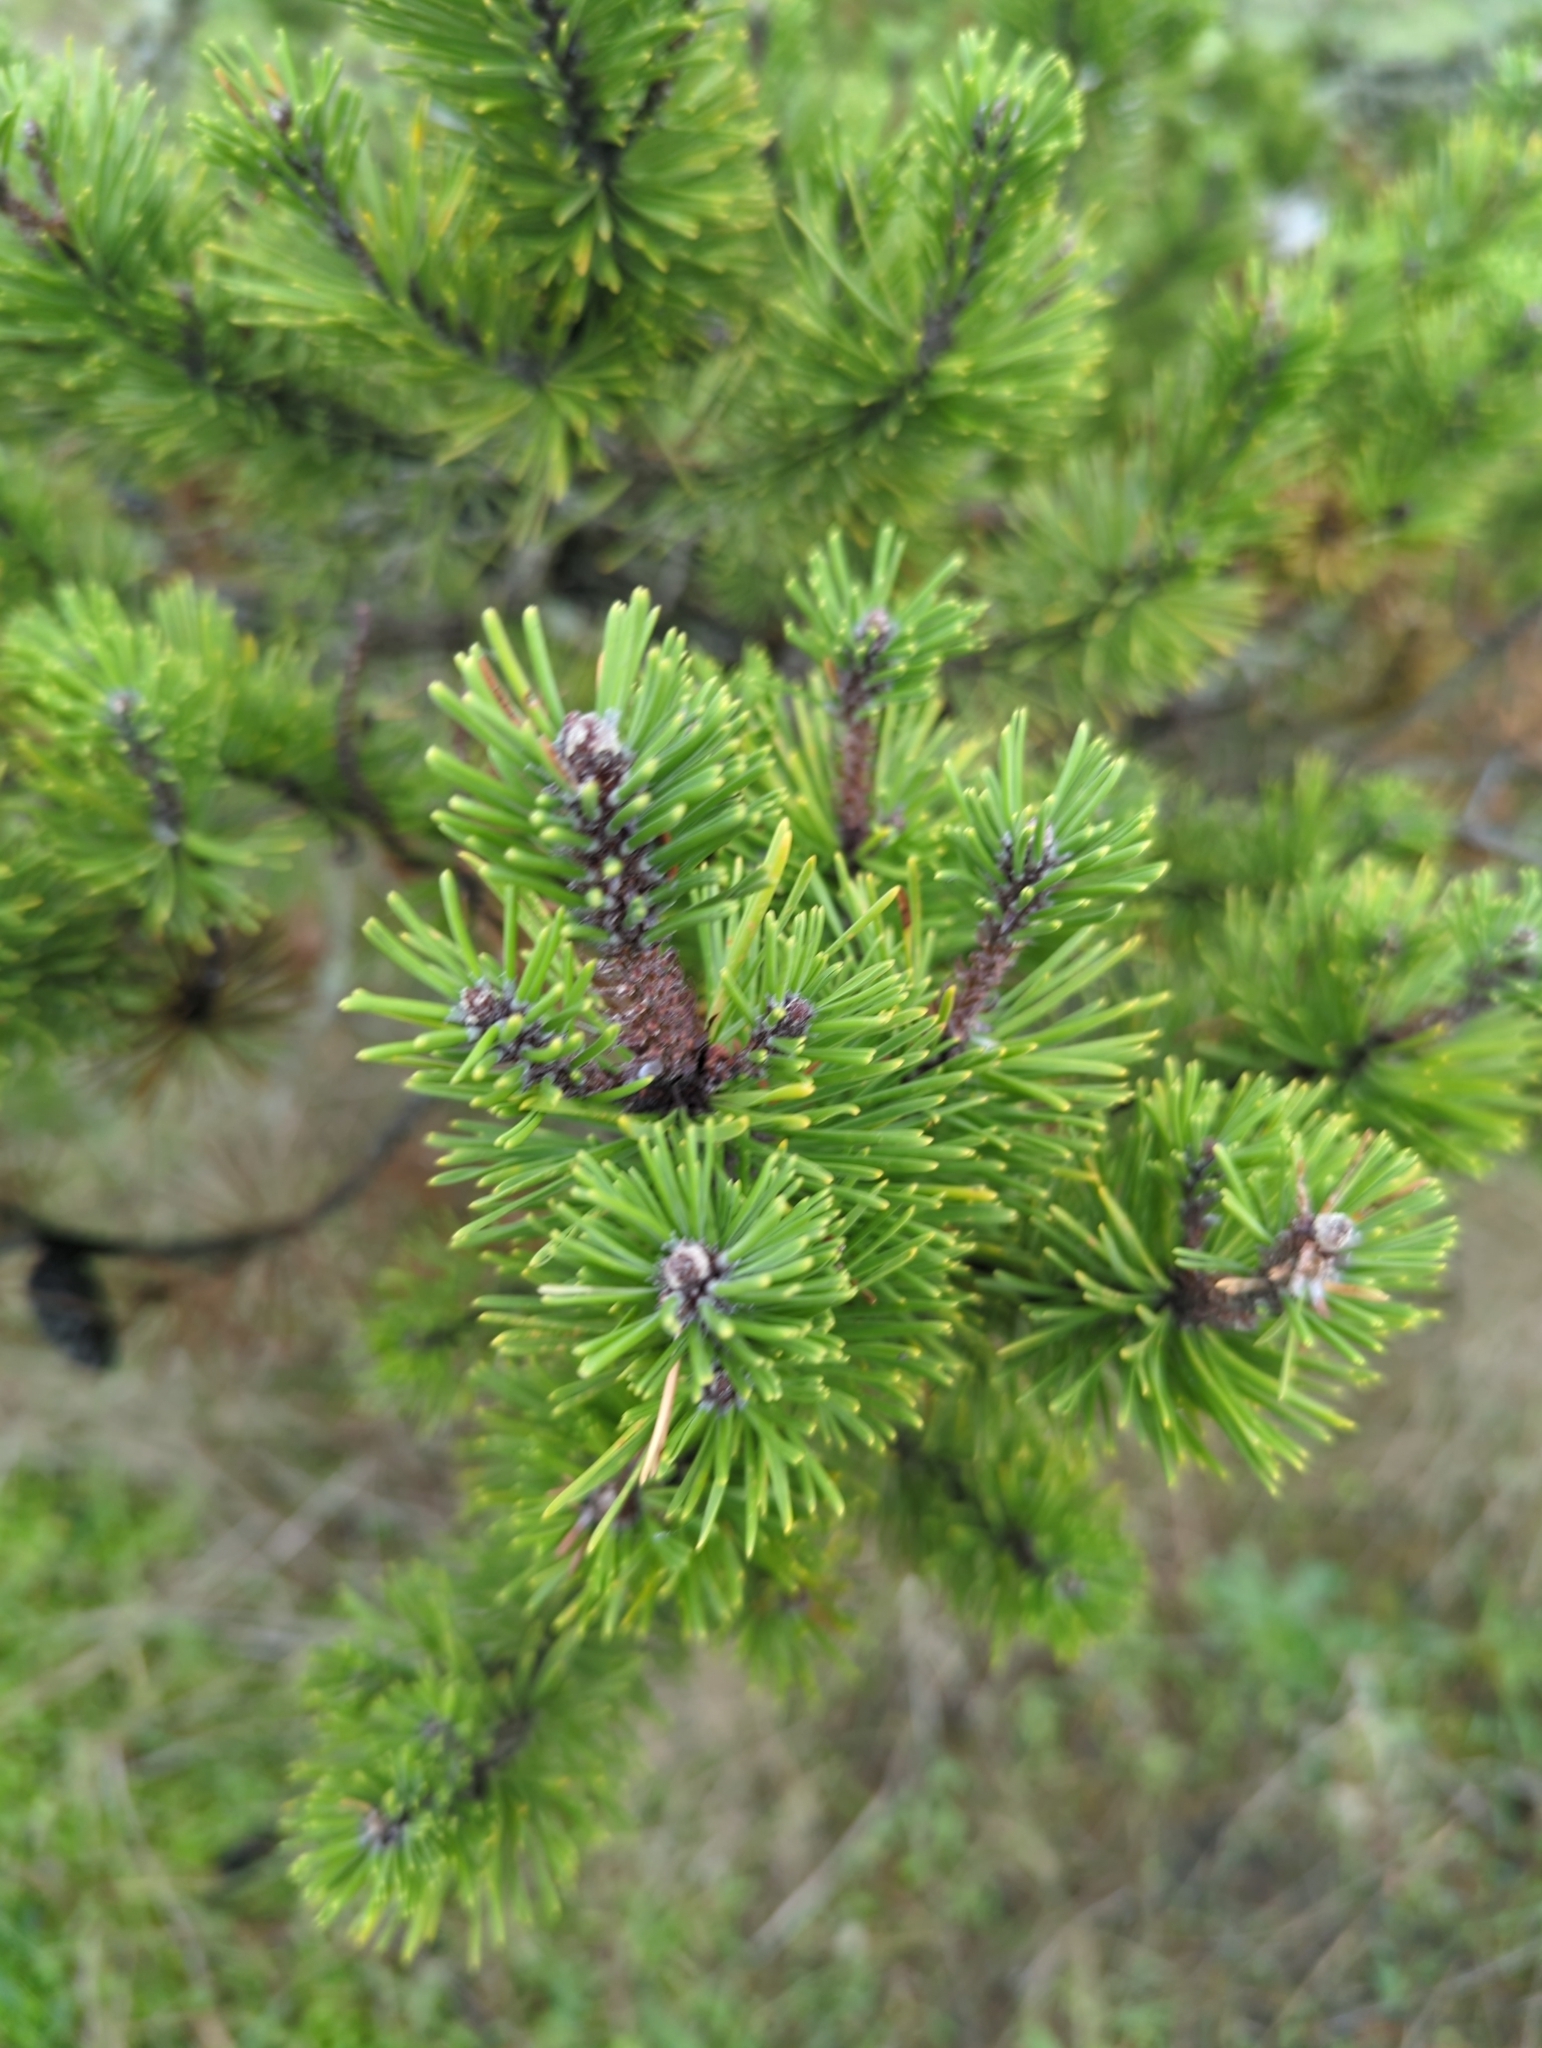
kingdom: Plantae
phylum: Tracheophyta
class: Pinopsida
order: Pinales
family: Pinaceae
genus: Pinus
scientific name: Pinus contorta
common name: Lodgepole pine
